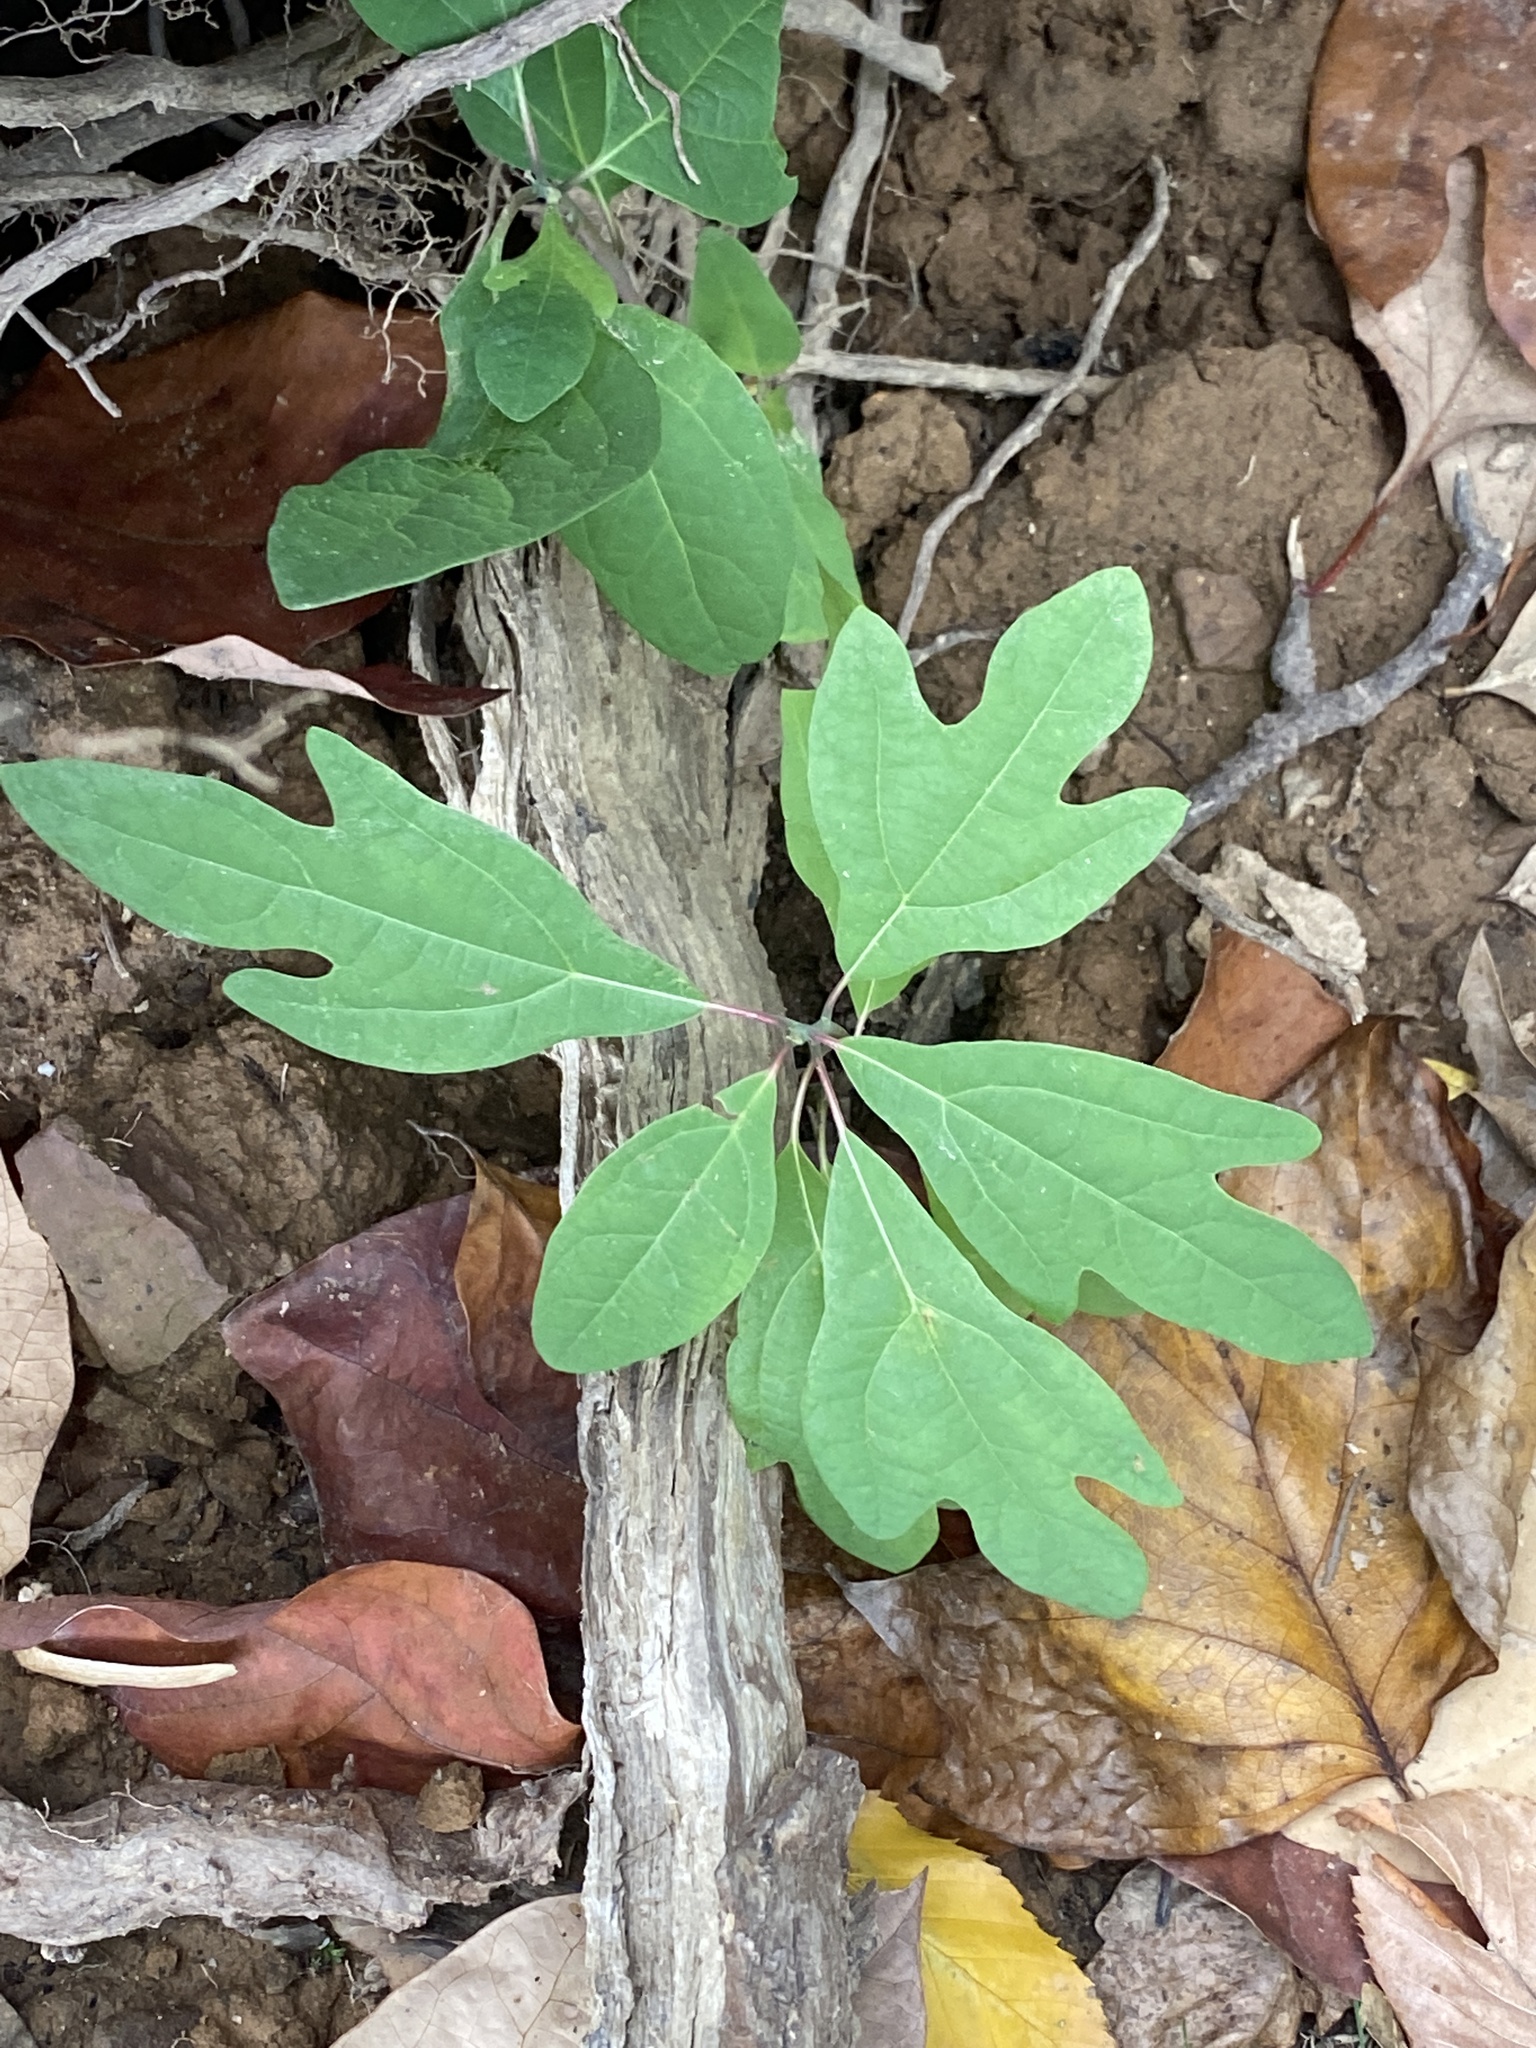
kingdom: Plantae
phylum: Tracheophyta
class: Magnoliopsida
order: Laurales
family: Lauraceae
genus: Sassafras
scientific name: Sassafras albidum
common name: Sassafras
